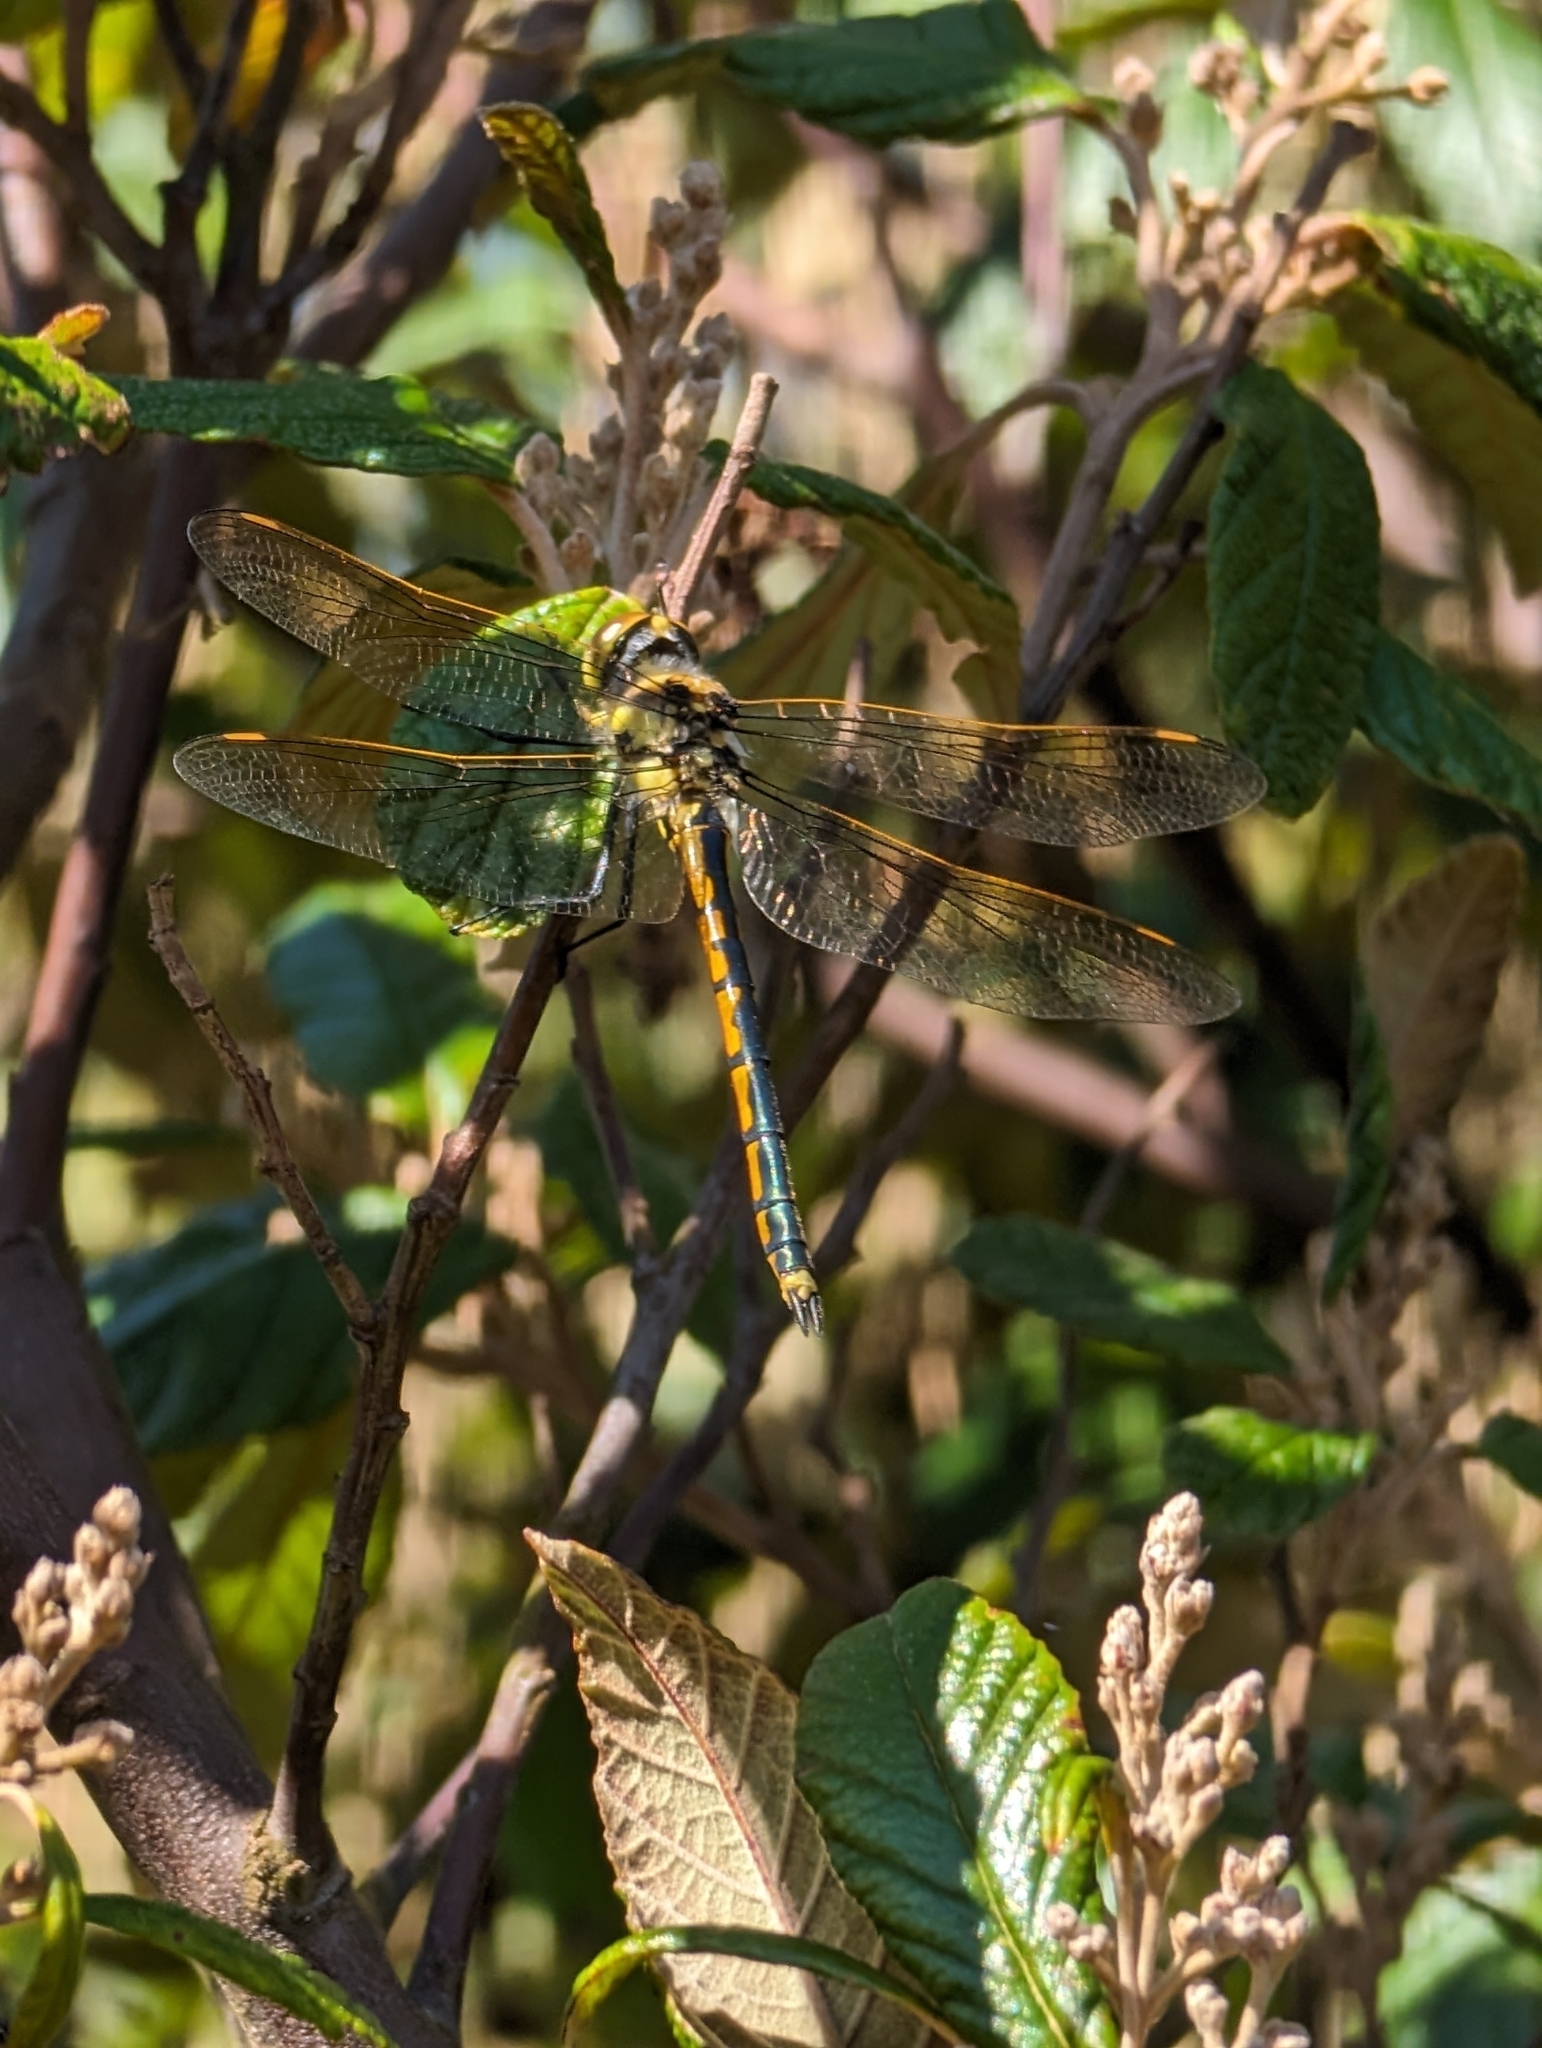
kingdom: Animalia
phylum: Arthropoda
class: Insecta
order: Odonata
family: Corduliidae
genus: Hemicordulia
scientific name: Hemicordulia tau
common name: Tau emerald
